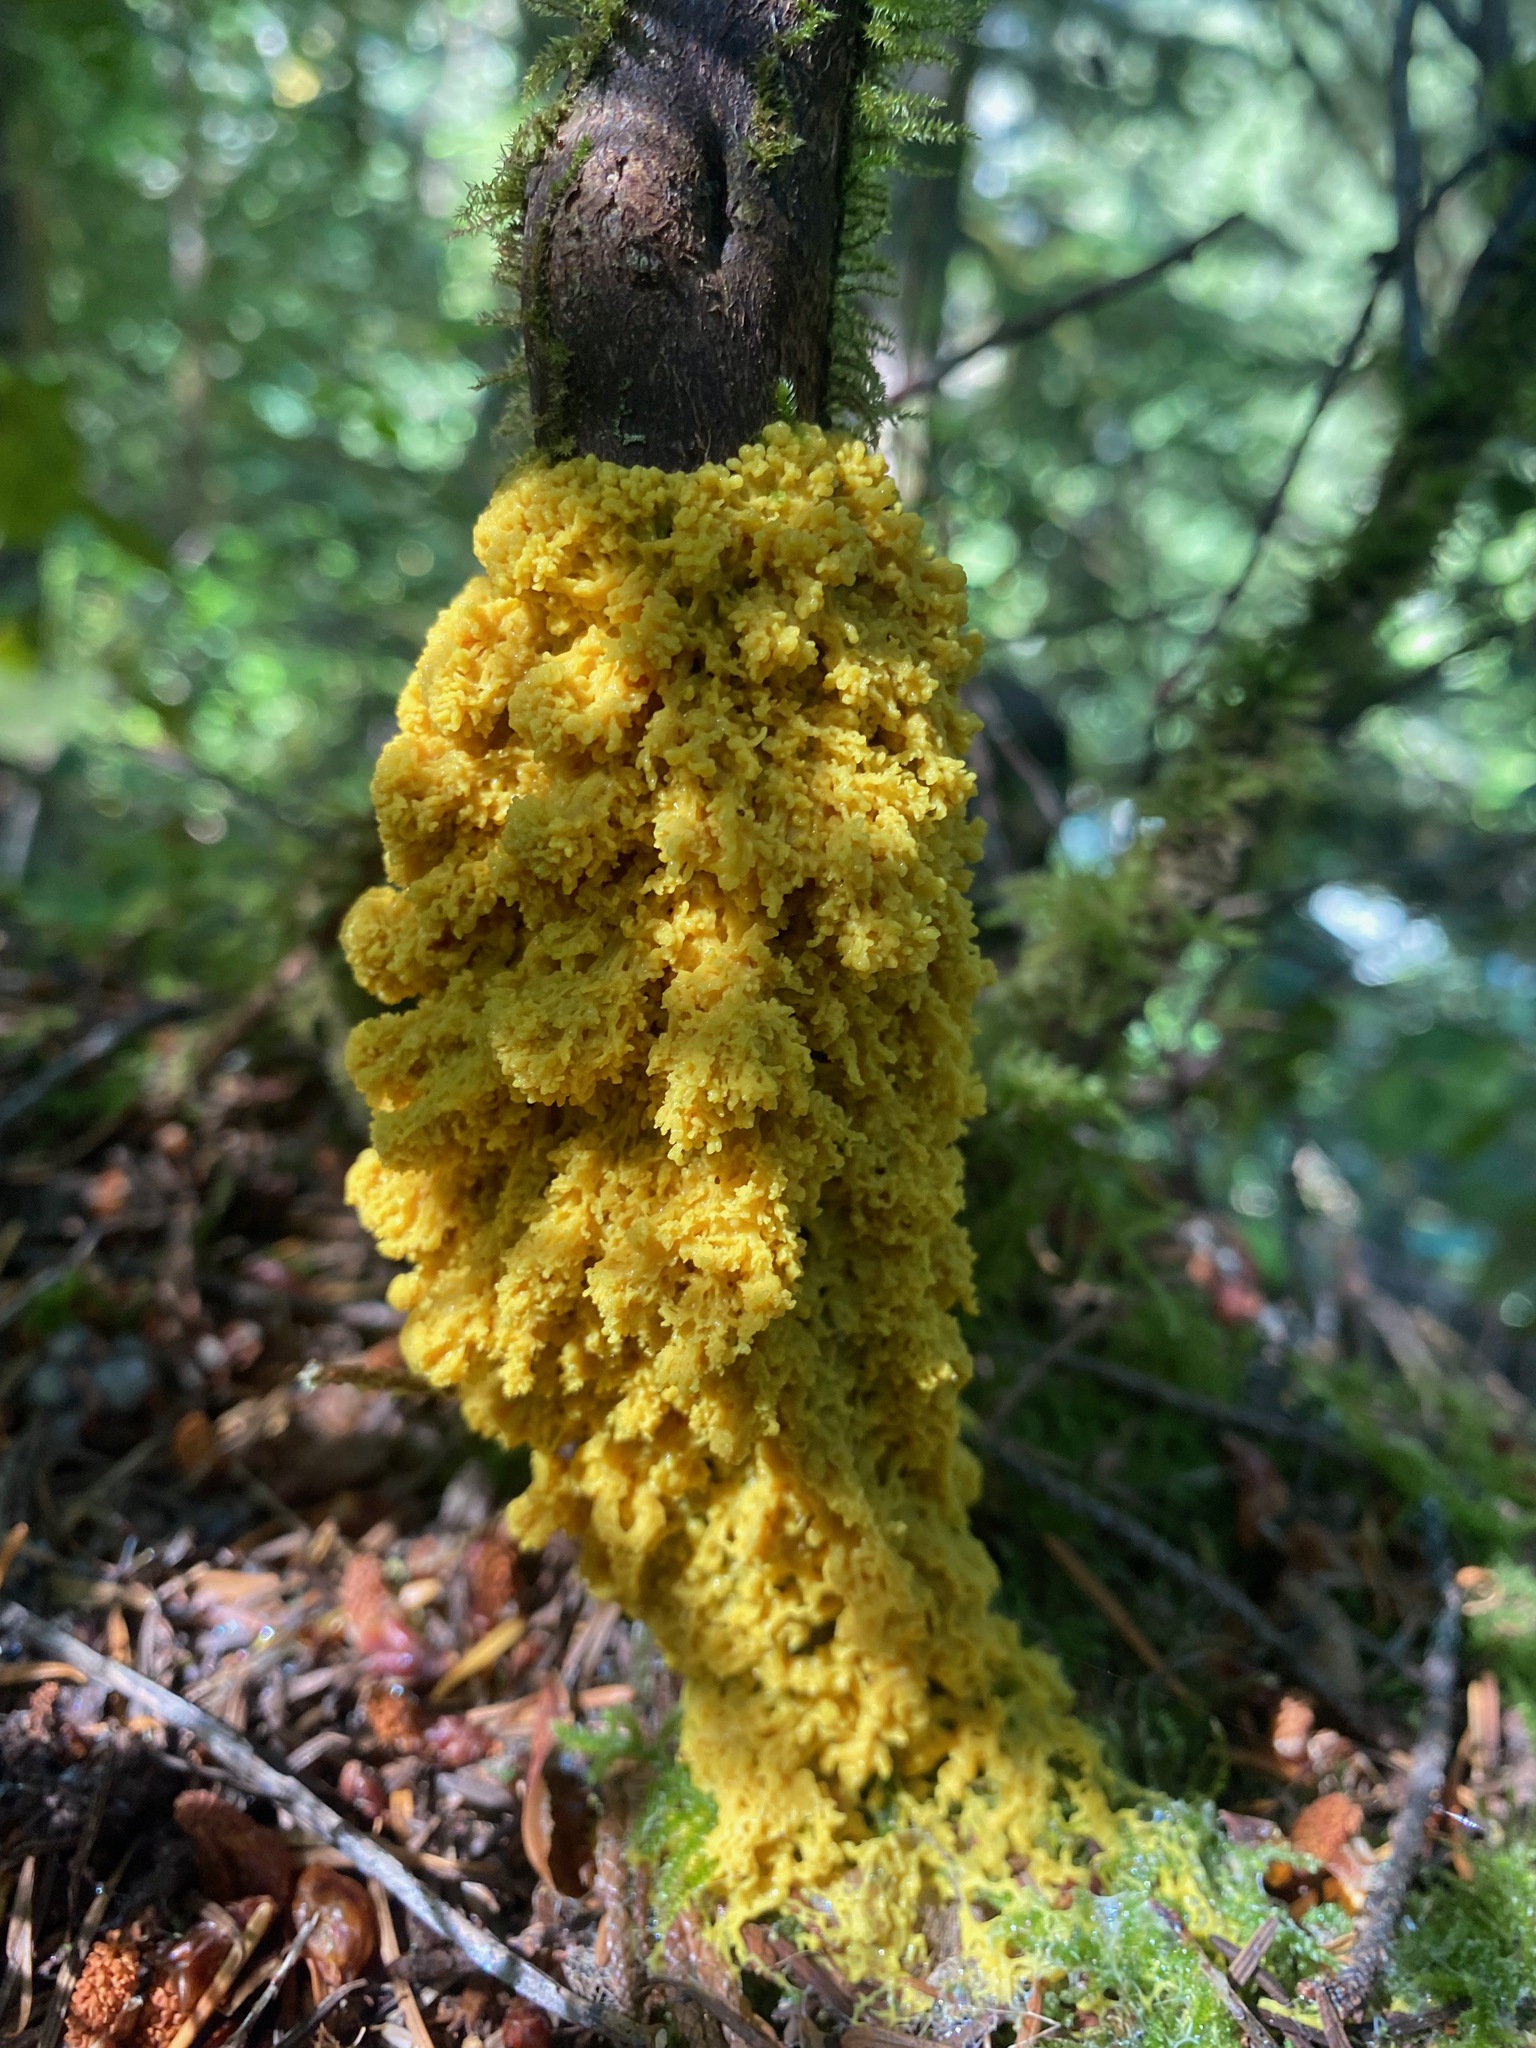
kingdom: Protozoa
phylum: Mycetozoa
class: Myxomycetes
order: Physarales
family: Physaraceae
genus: Fuligo
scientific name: Fuligo septica
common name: Dog vomit slime mold
